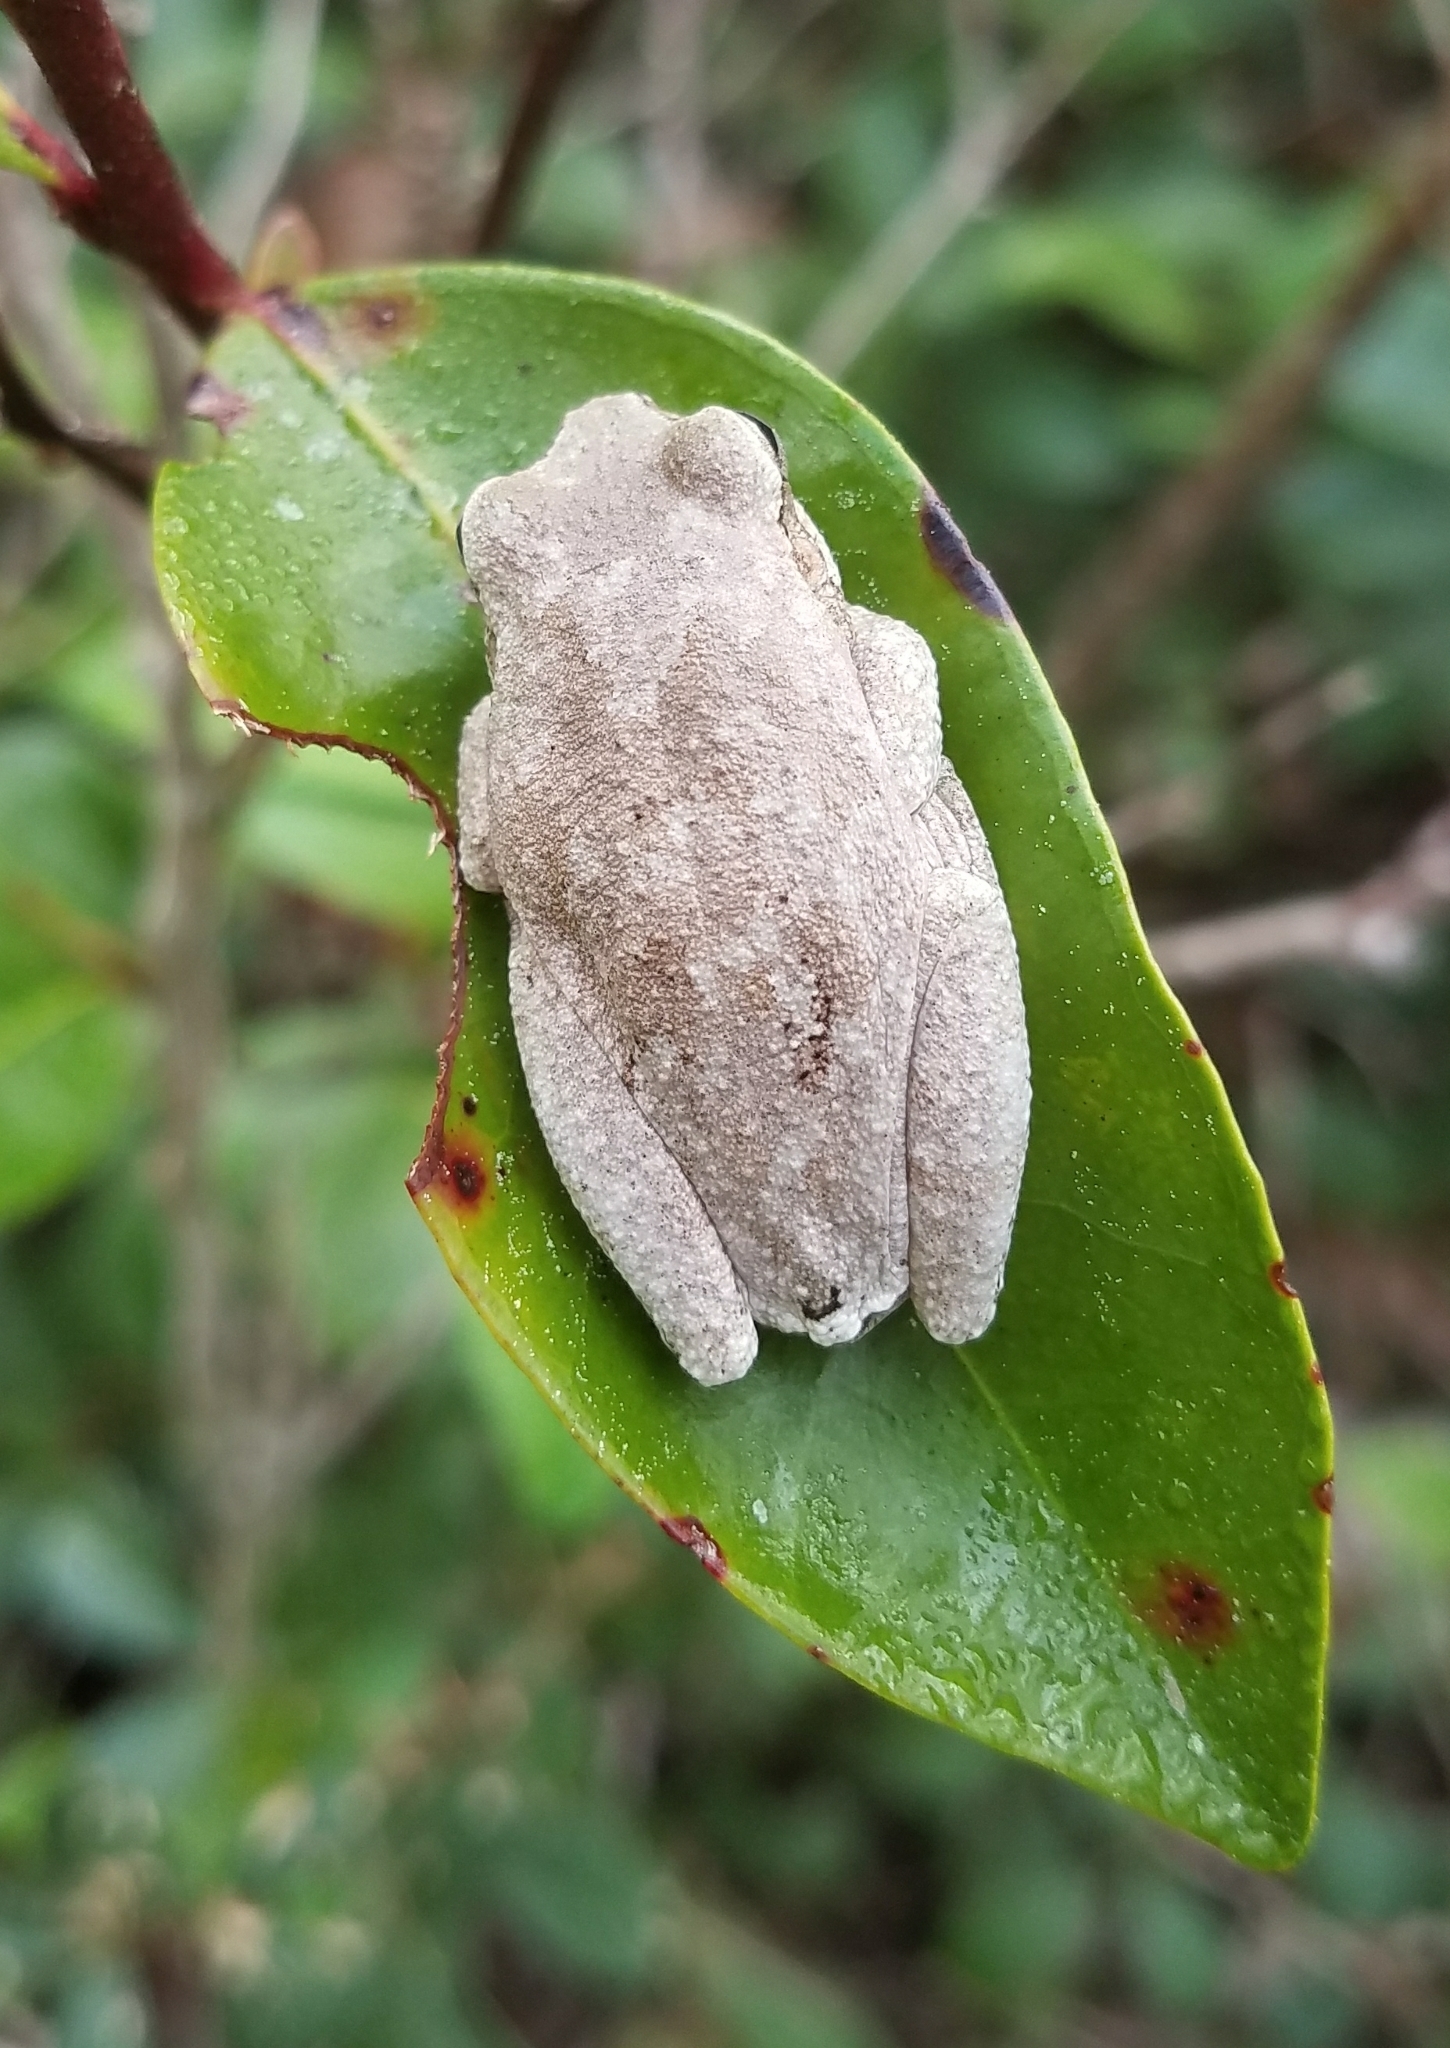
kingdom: Animalia
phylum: Chordata
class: Amphibia
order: Anura
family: Hylidae
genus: Hyla
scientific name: Hyla femoralis
